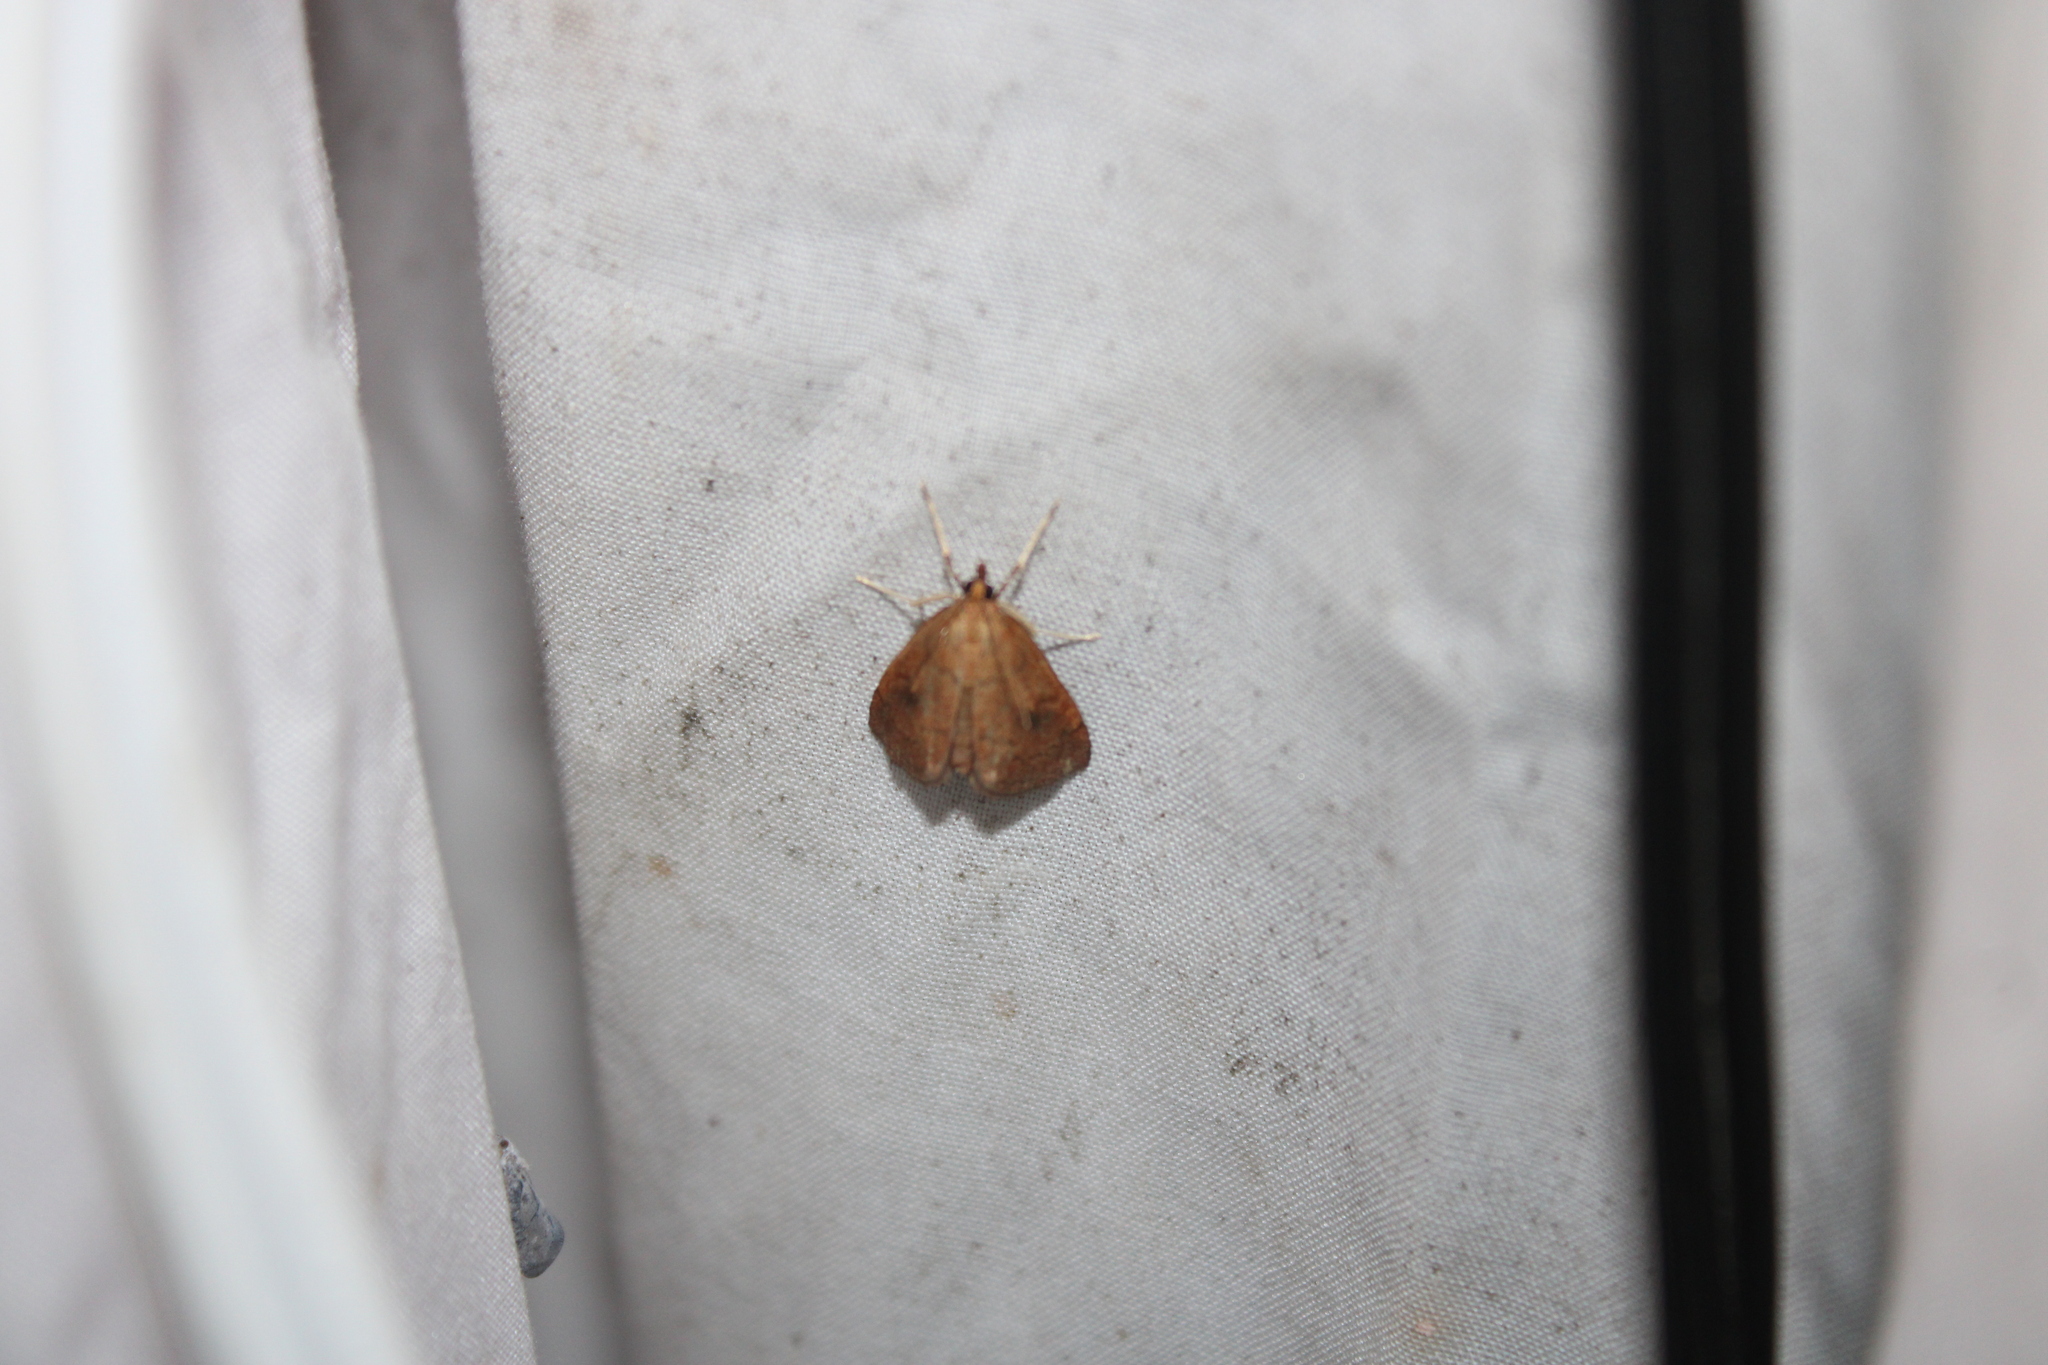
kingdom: Animalia
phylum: Arthropoda
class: Insecta
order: Lepidoptera
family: Crambidae
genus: Fumibotys
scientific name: Fumibotys fumalis
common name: Mint root borer moth
